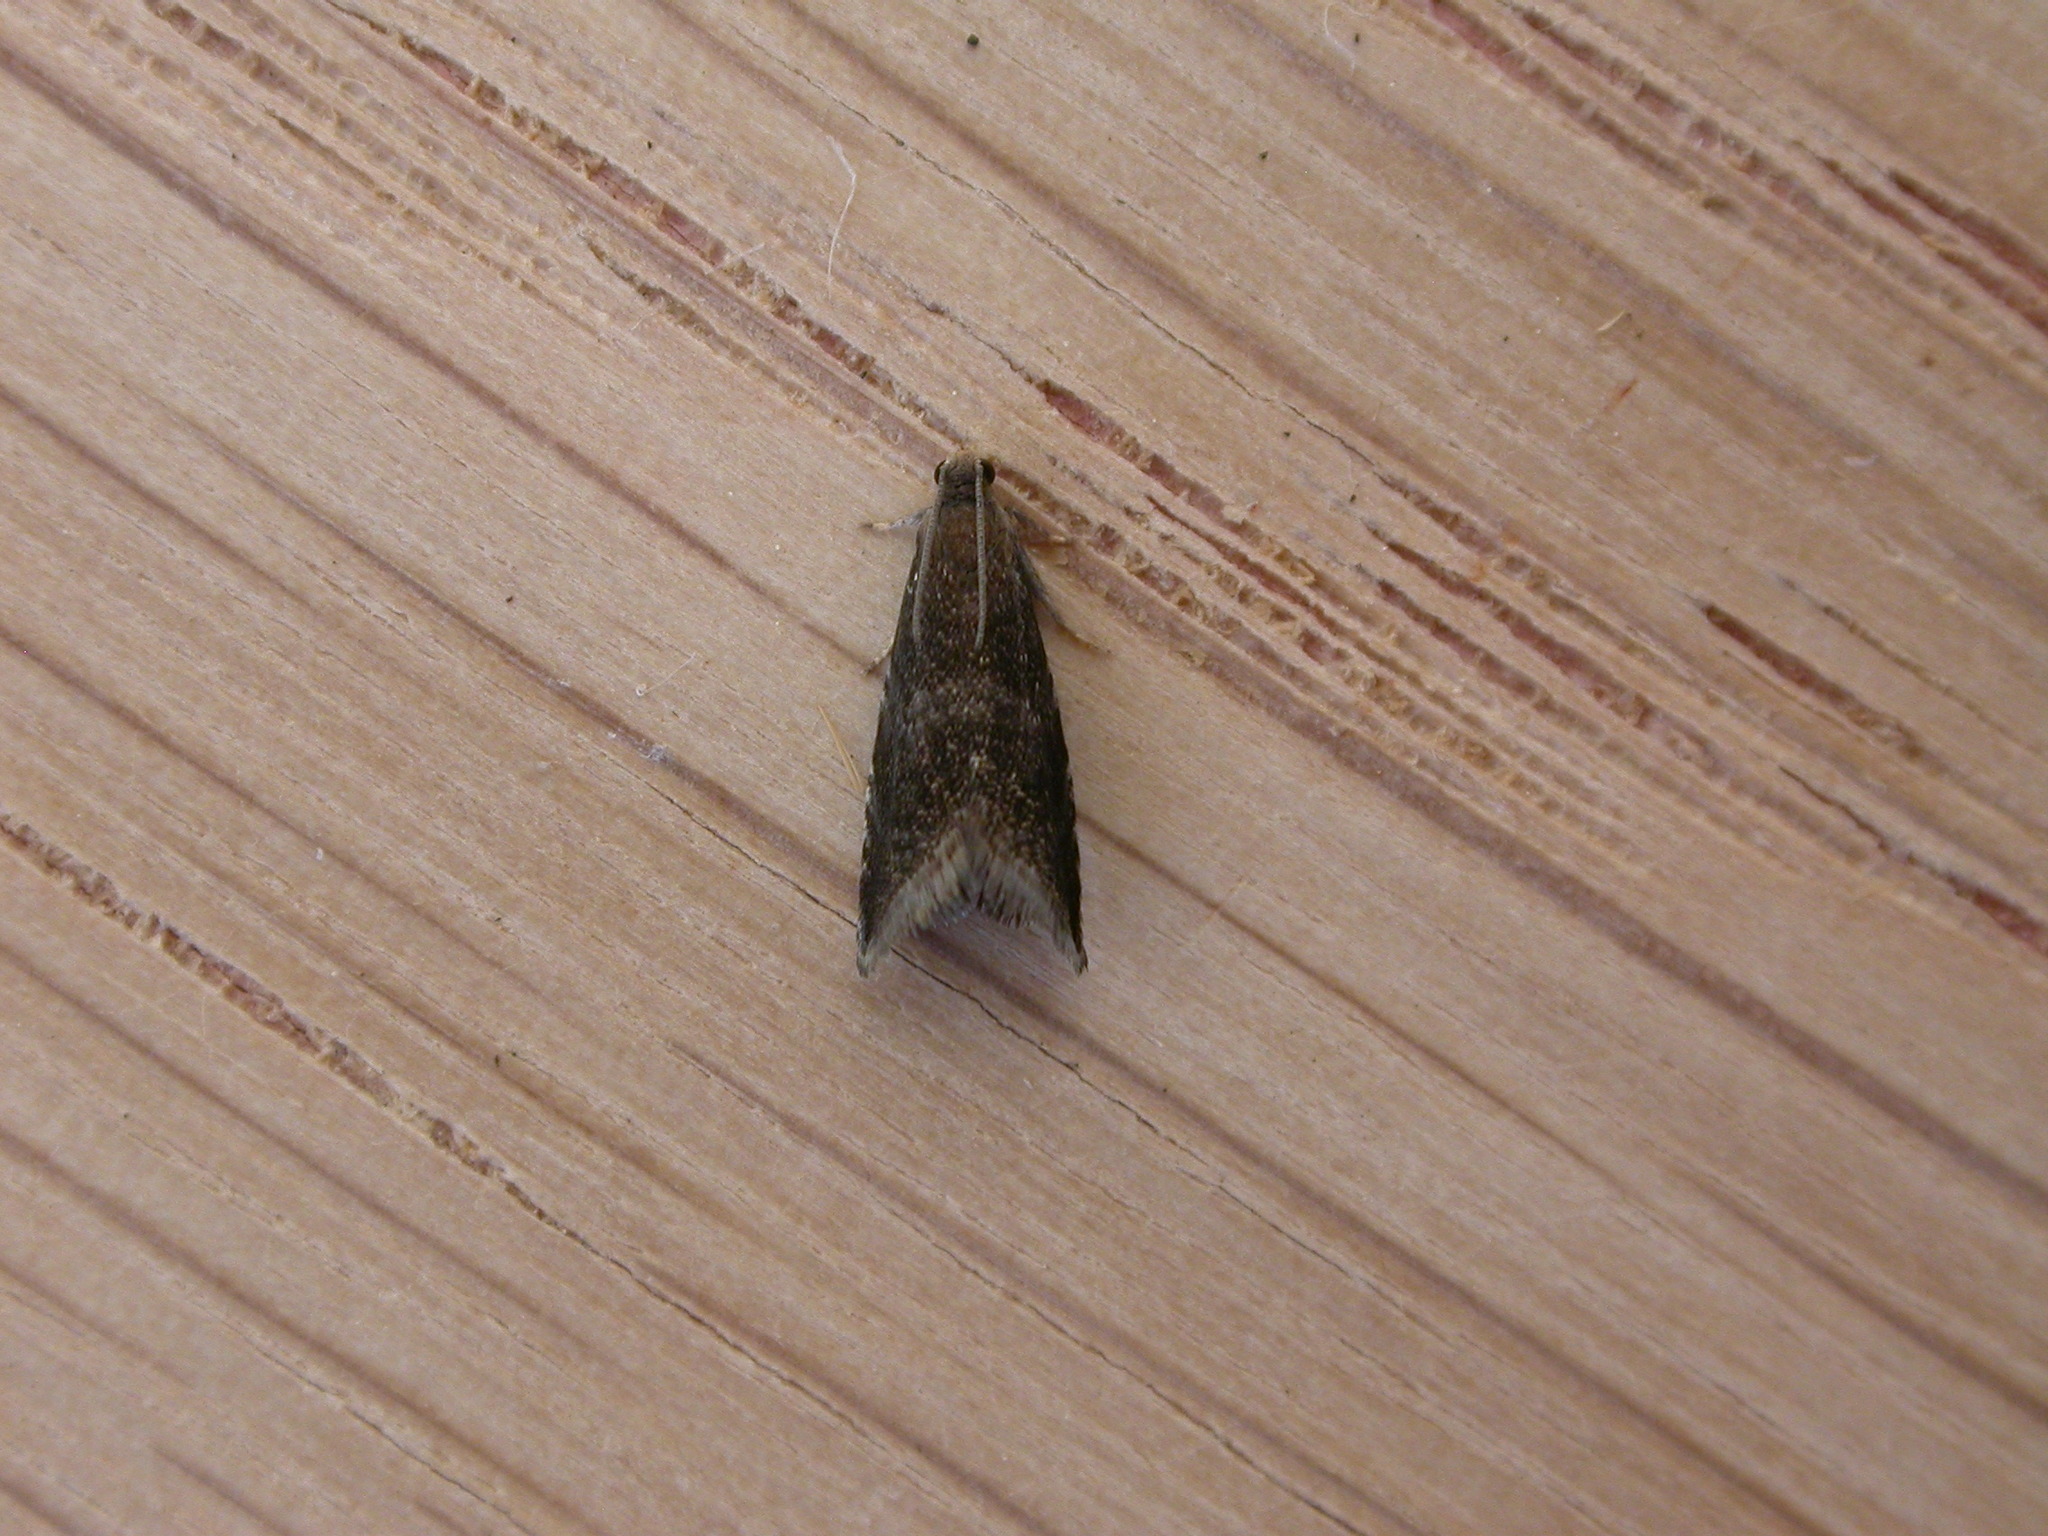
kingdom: Animalia
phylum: Arthropoda
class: Insecta
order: Lepidoptera
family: Tortricidae
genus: Strophedra
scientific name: Strophedra weirana
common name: Little beech piercer
